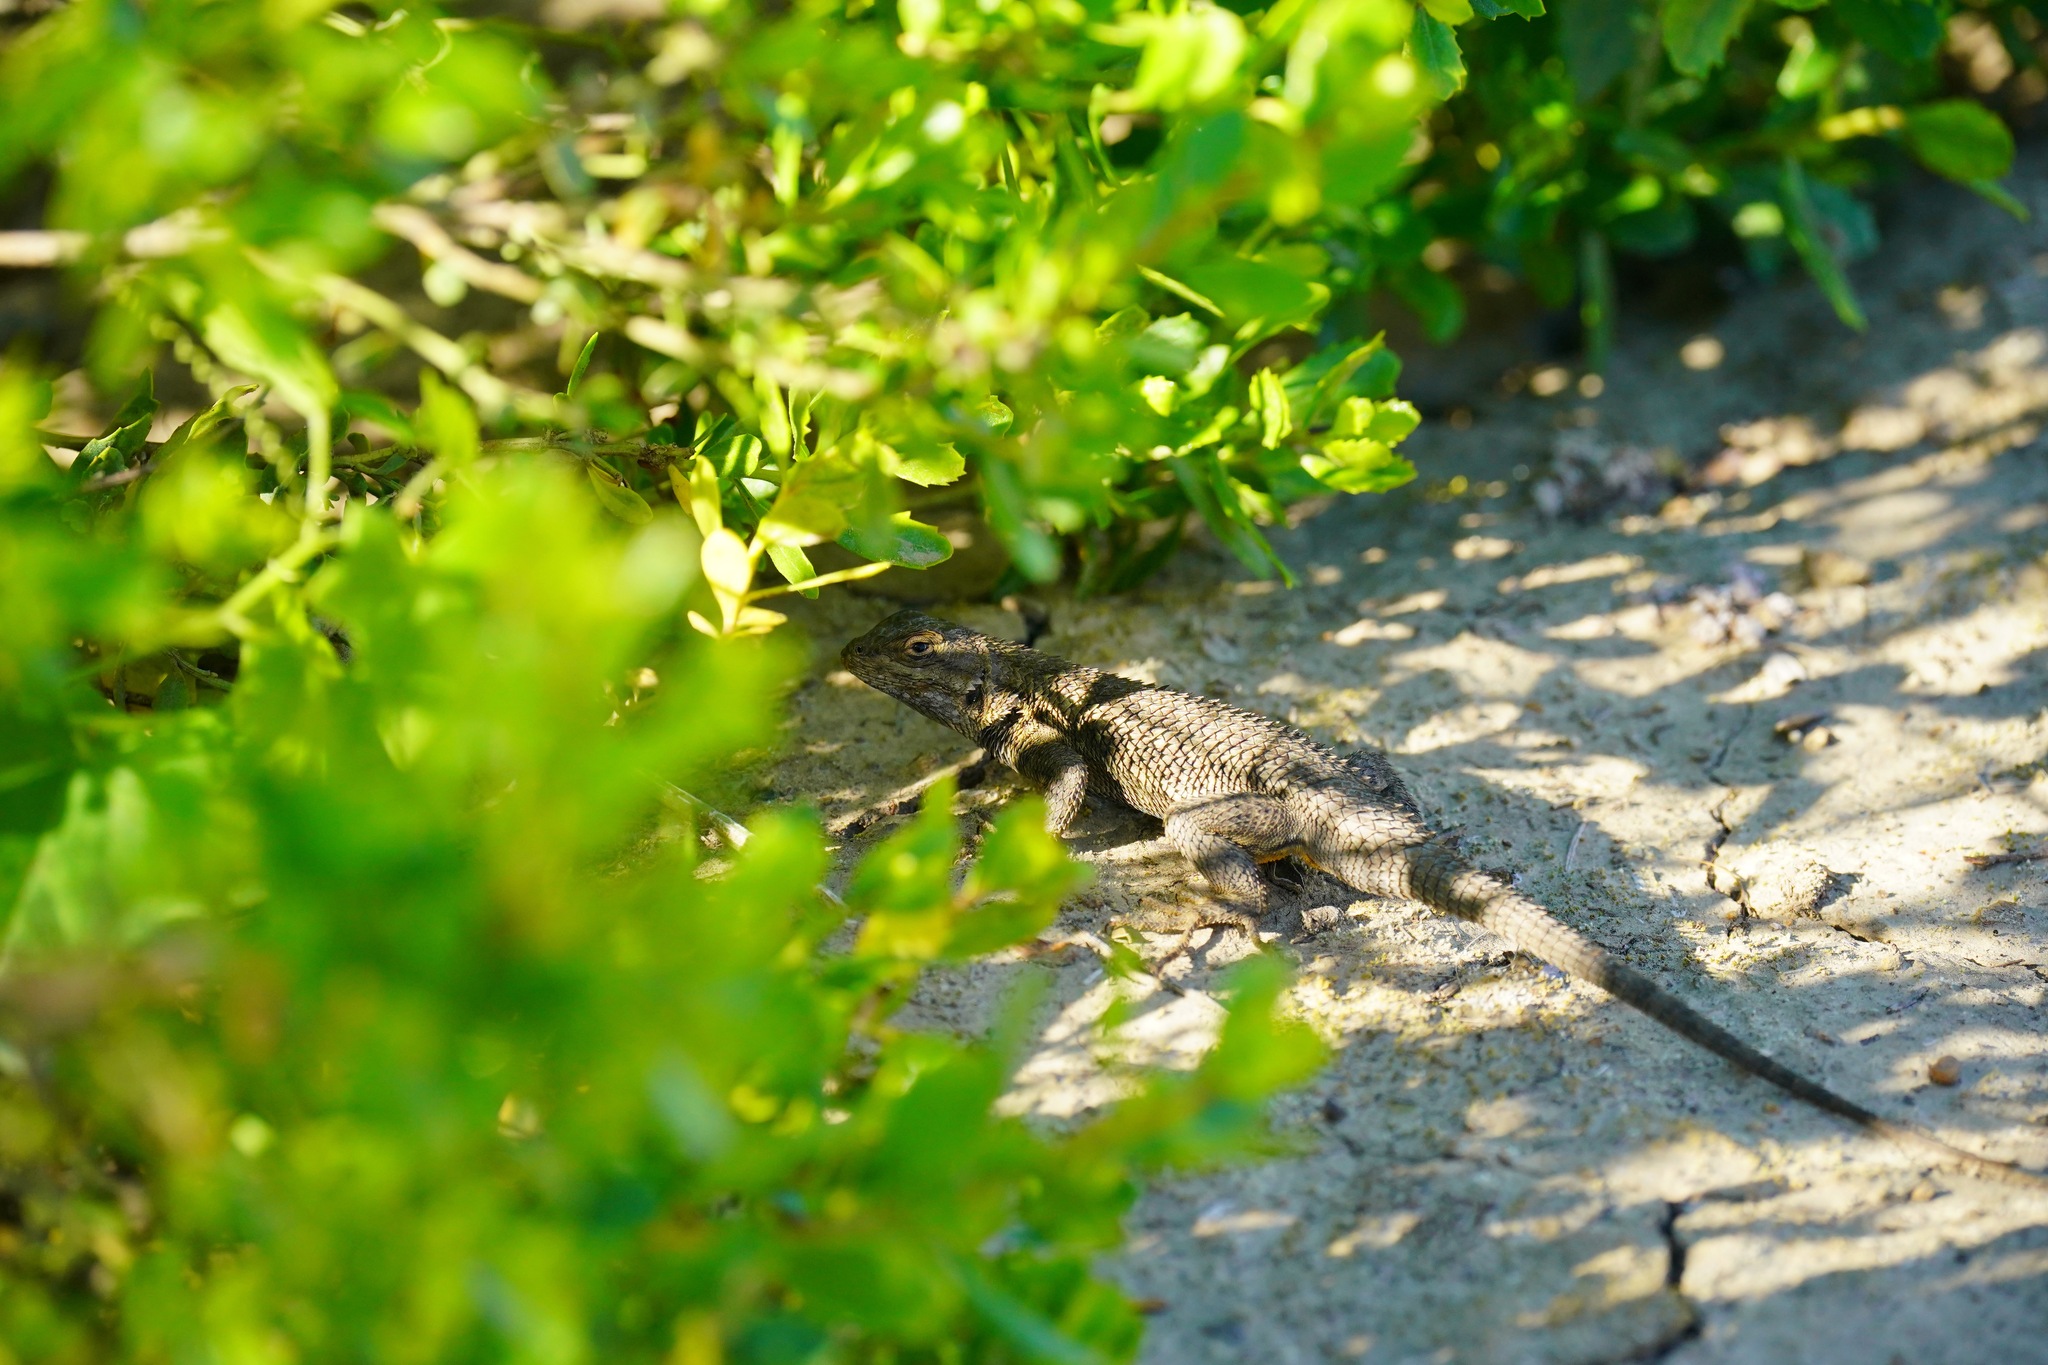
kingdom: Animalia
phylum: Chordata
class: Squamata
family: Phrynosomatidae
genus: Sceloporus
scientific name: Sceloporus occidentalis
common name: Western fence lizard
